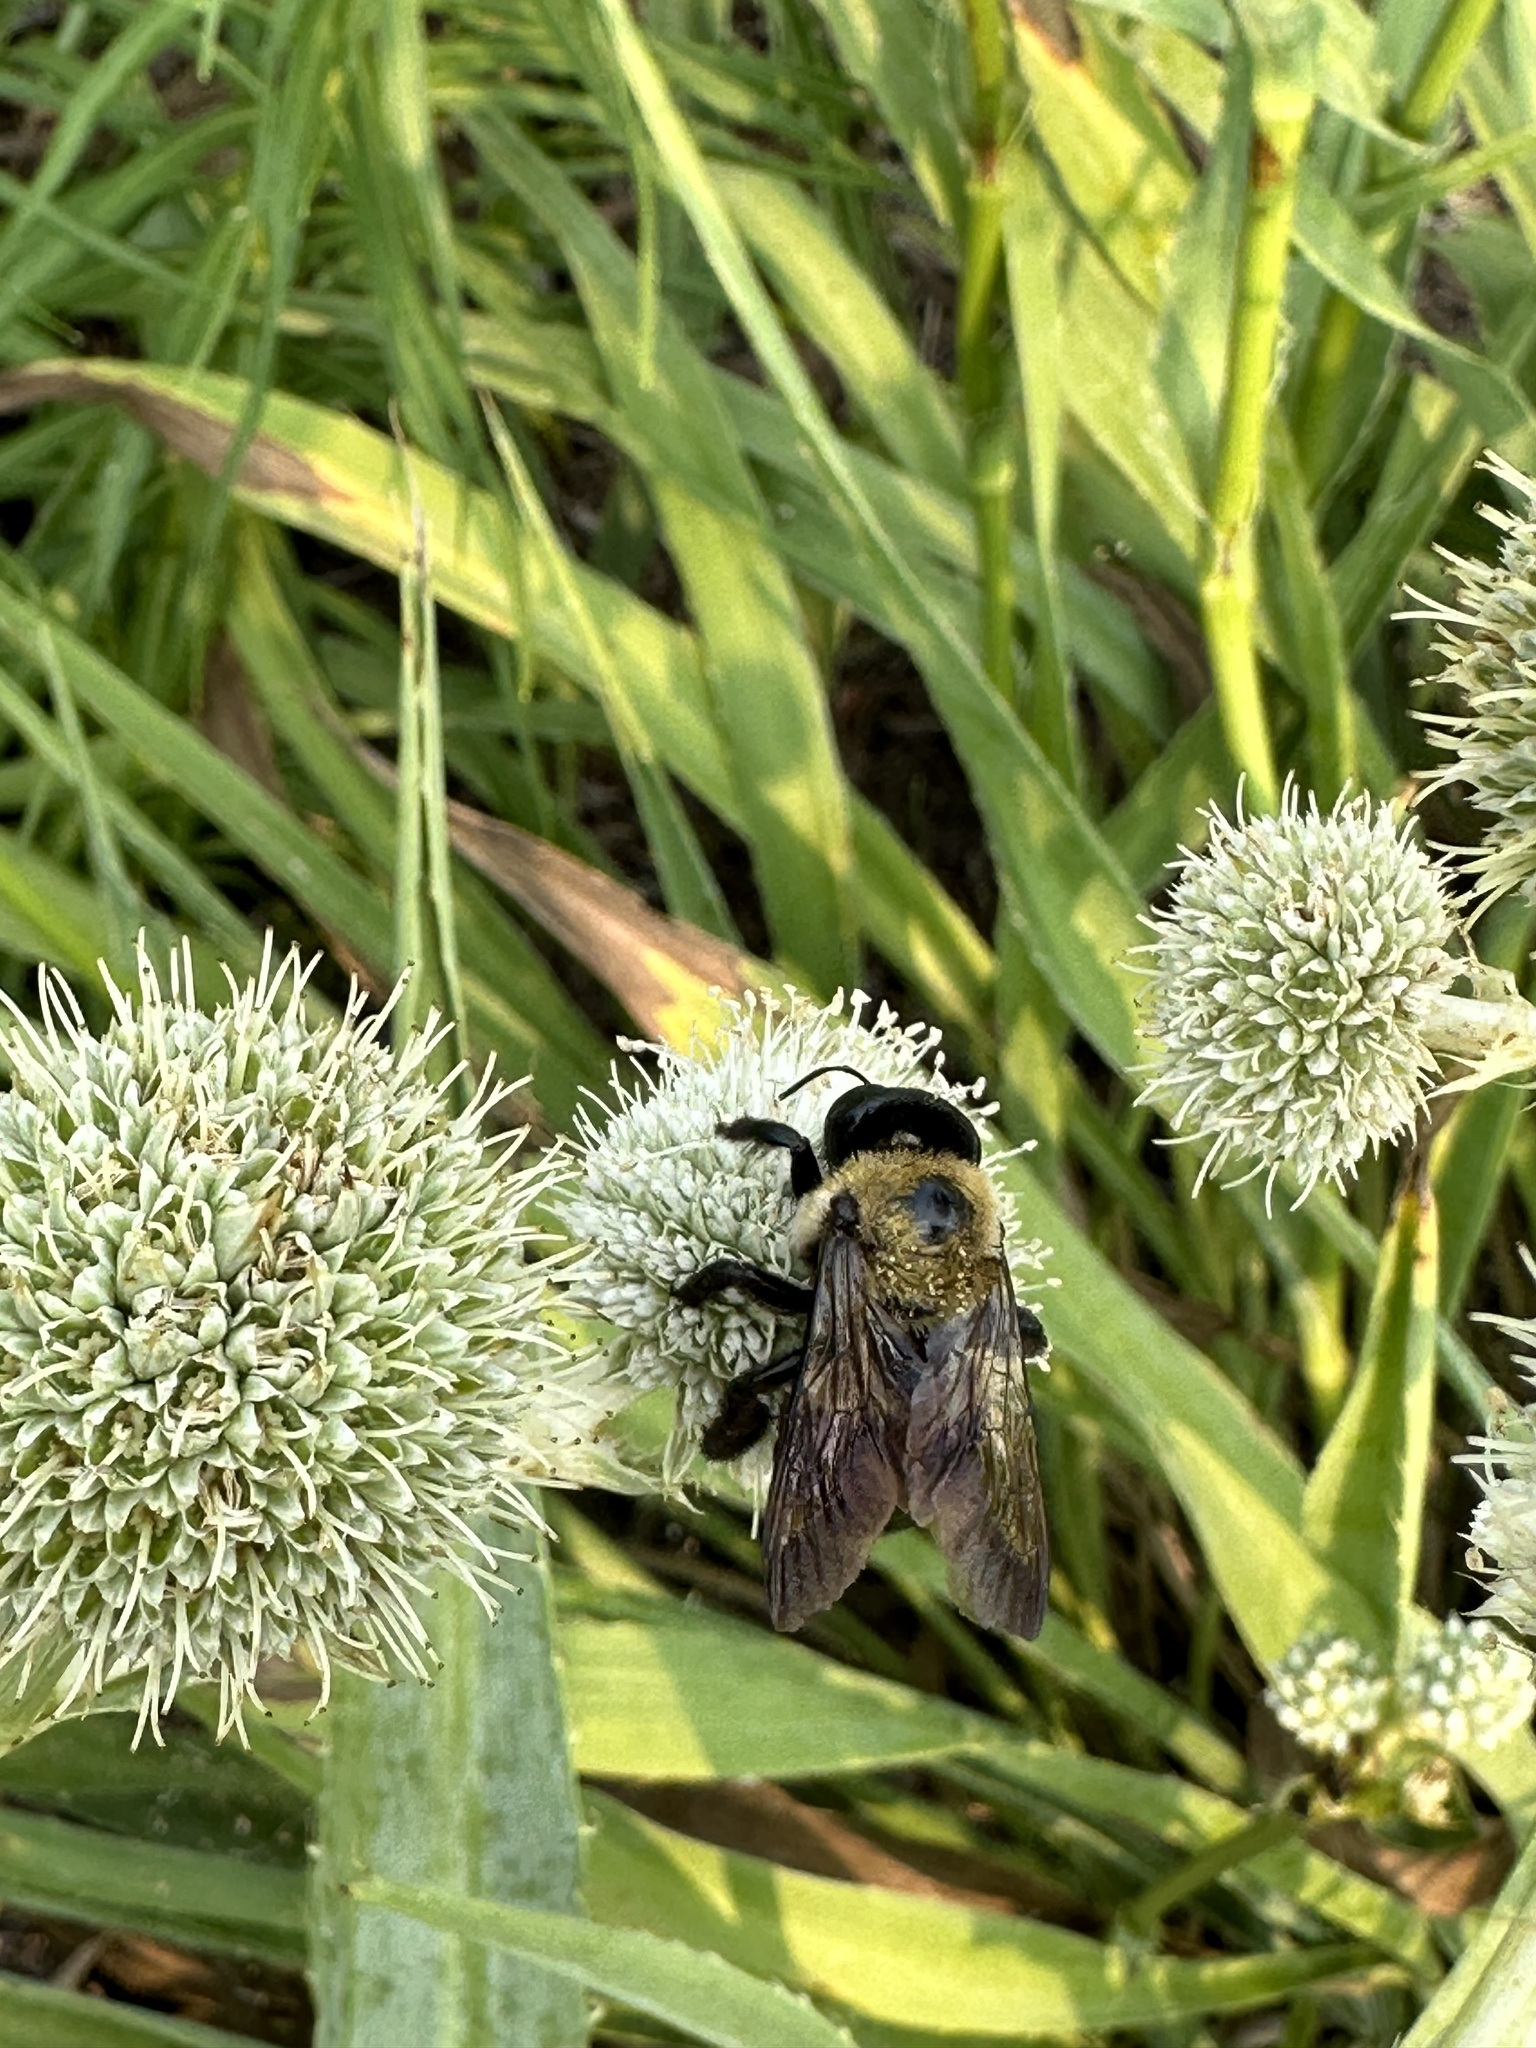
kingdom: Animalia
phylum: Arthropoda
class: Insecta
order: Hymenoptera
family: Apidae
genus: Xylocopa
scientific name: Xylocopa virginica
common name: Carpenter bee
